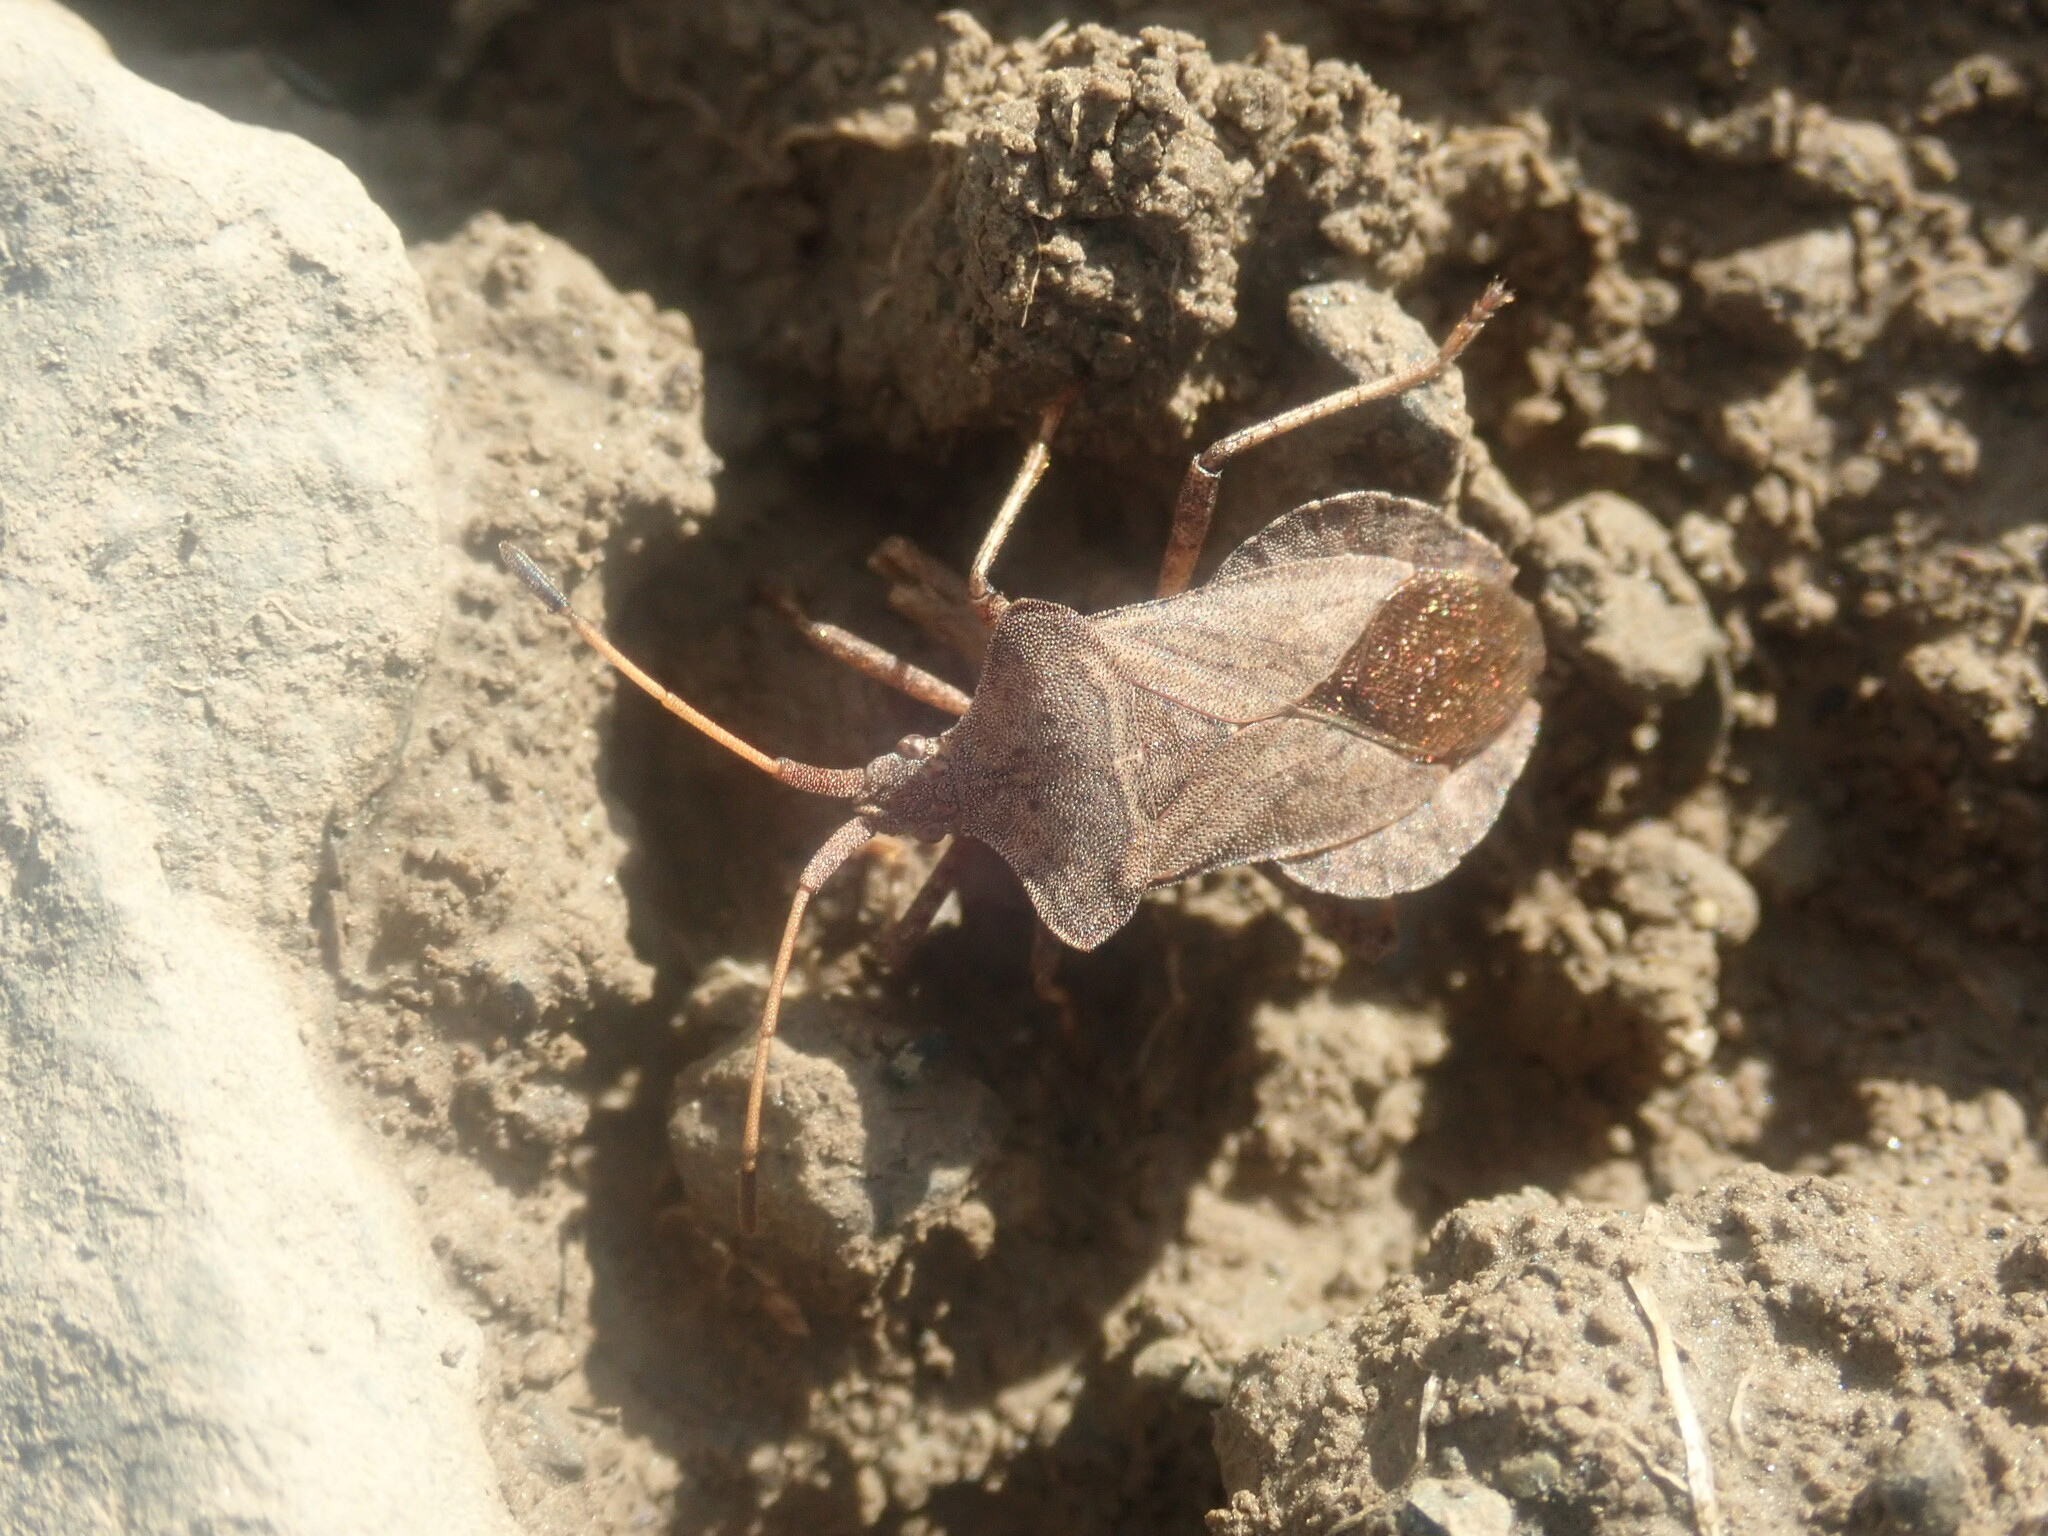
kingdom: Animalia
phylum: Arthropoda
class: Insecta
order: Hemiptera
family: Coreidae
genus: Coreus
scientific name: Coreus marginatus
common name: Dock bug
